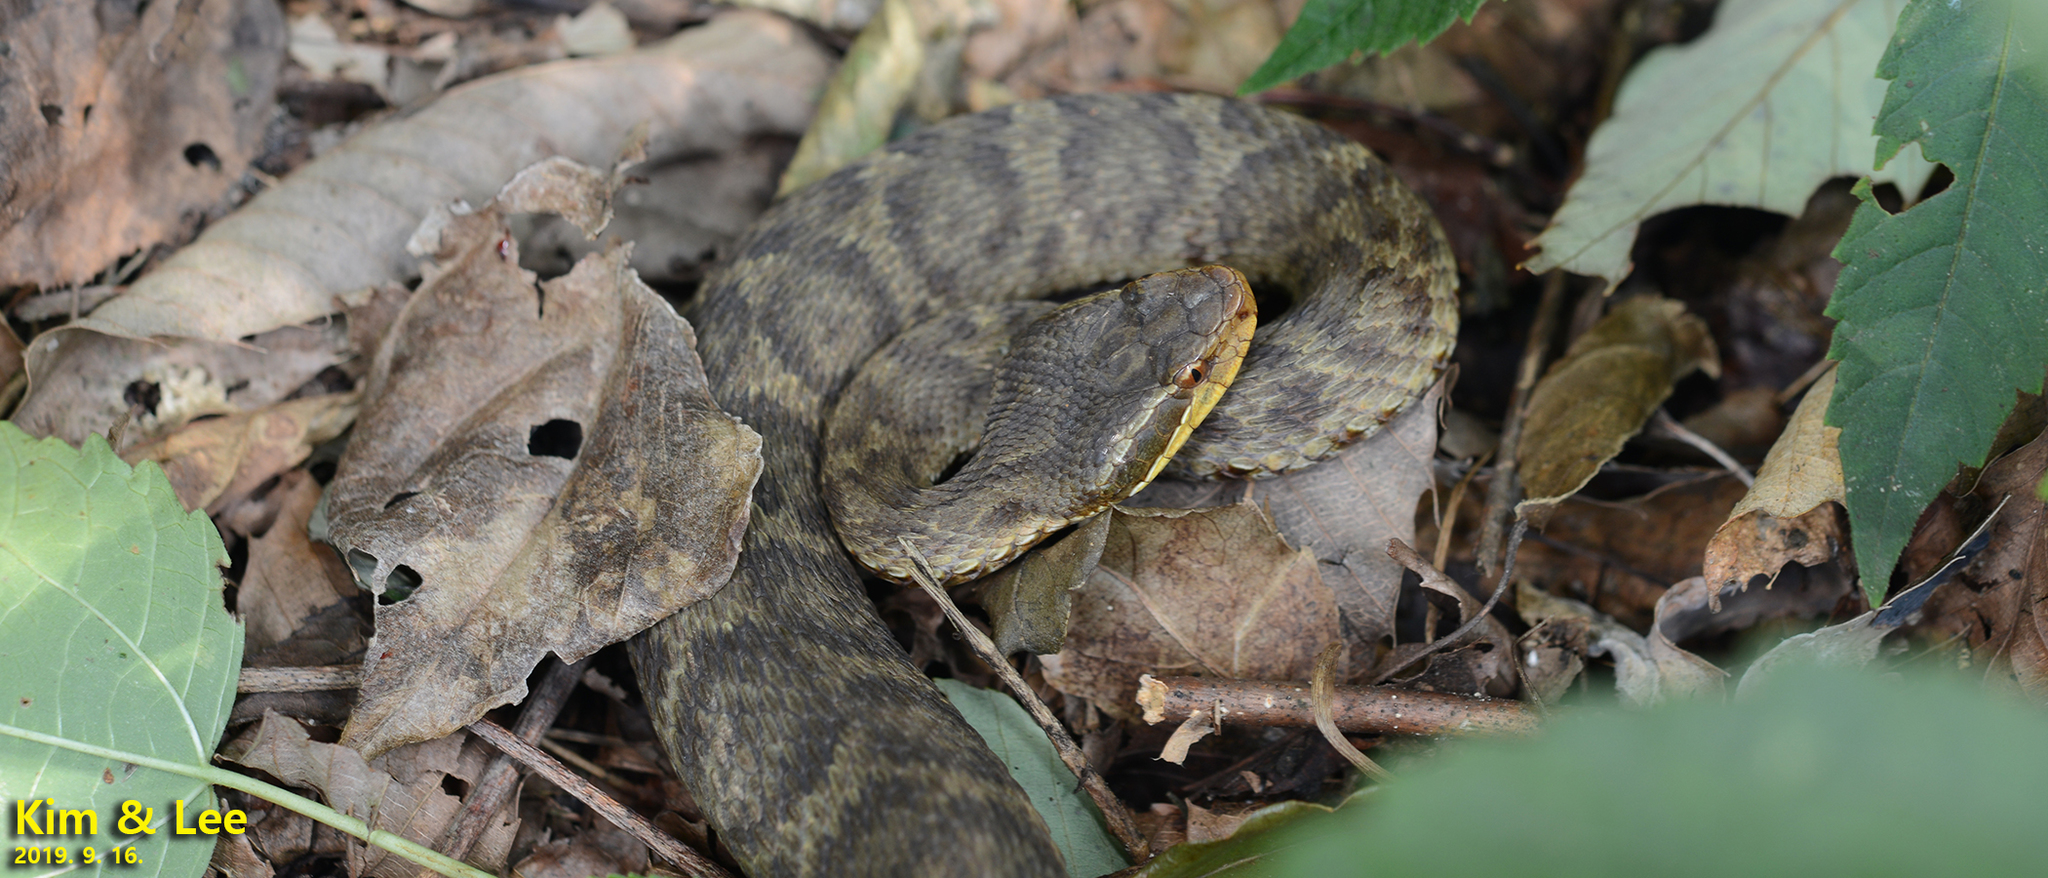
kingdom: Animalia
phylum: Chordata
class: Squamata
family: Viperidae
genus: Gloydius
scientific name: Gloydius ussuriensis
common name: Ussuri mamushi
